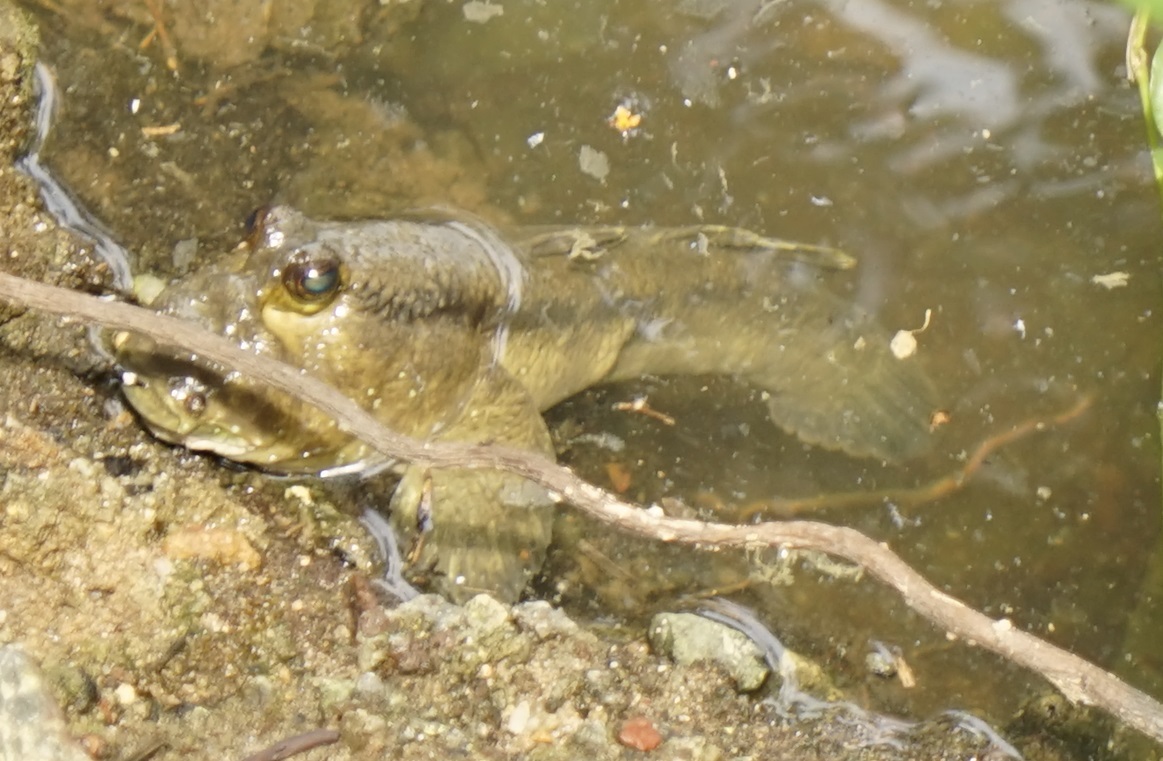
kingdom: Animalia
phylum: Chordata
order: Perciformes
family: Gobiidae
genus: Periophthalmodon
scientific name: Periophthalmodon schlosseri
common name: Giant mudskipper
